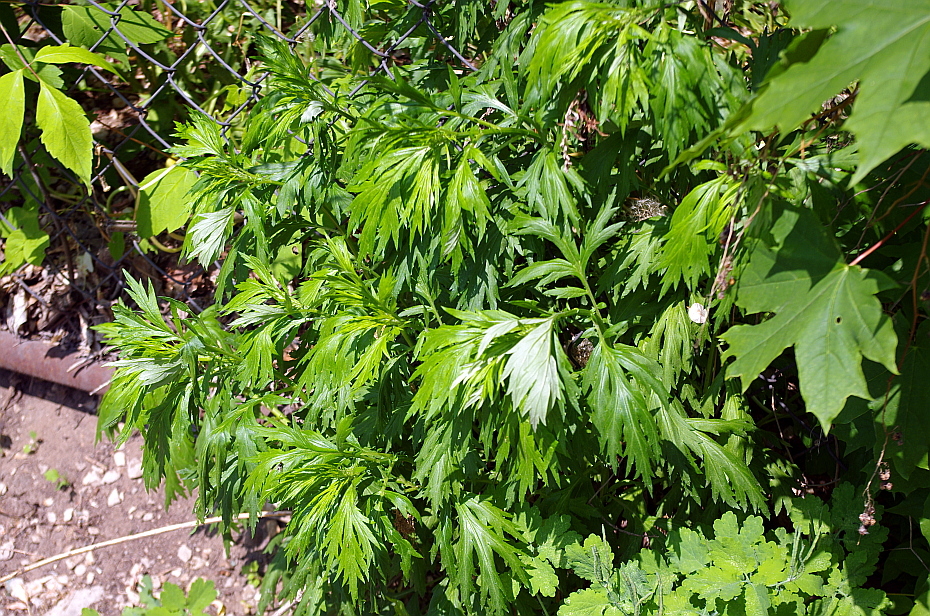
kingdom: Plantae
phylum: Tracheophyta
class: Magnoliopsida
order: Asterales
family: Asteraceae
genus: Artemisia
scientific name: Artemisia vulgaris
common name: Mugwort
